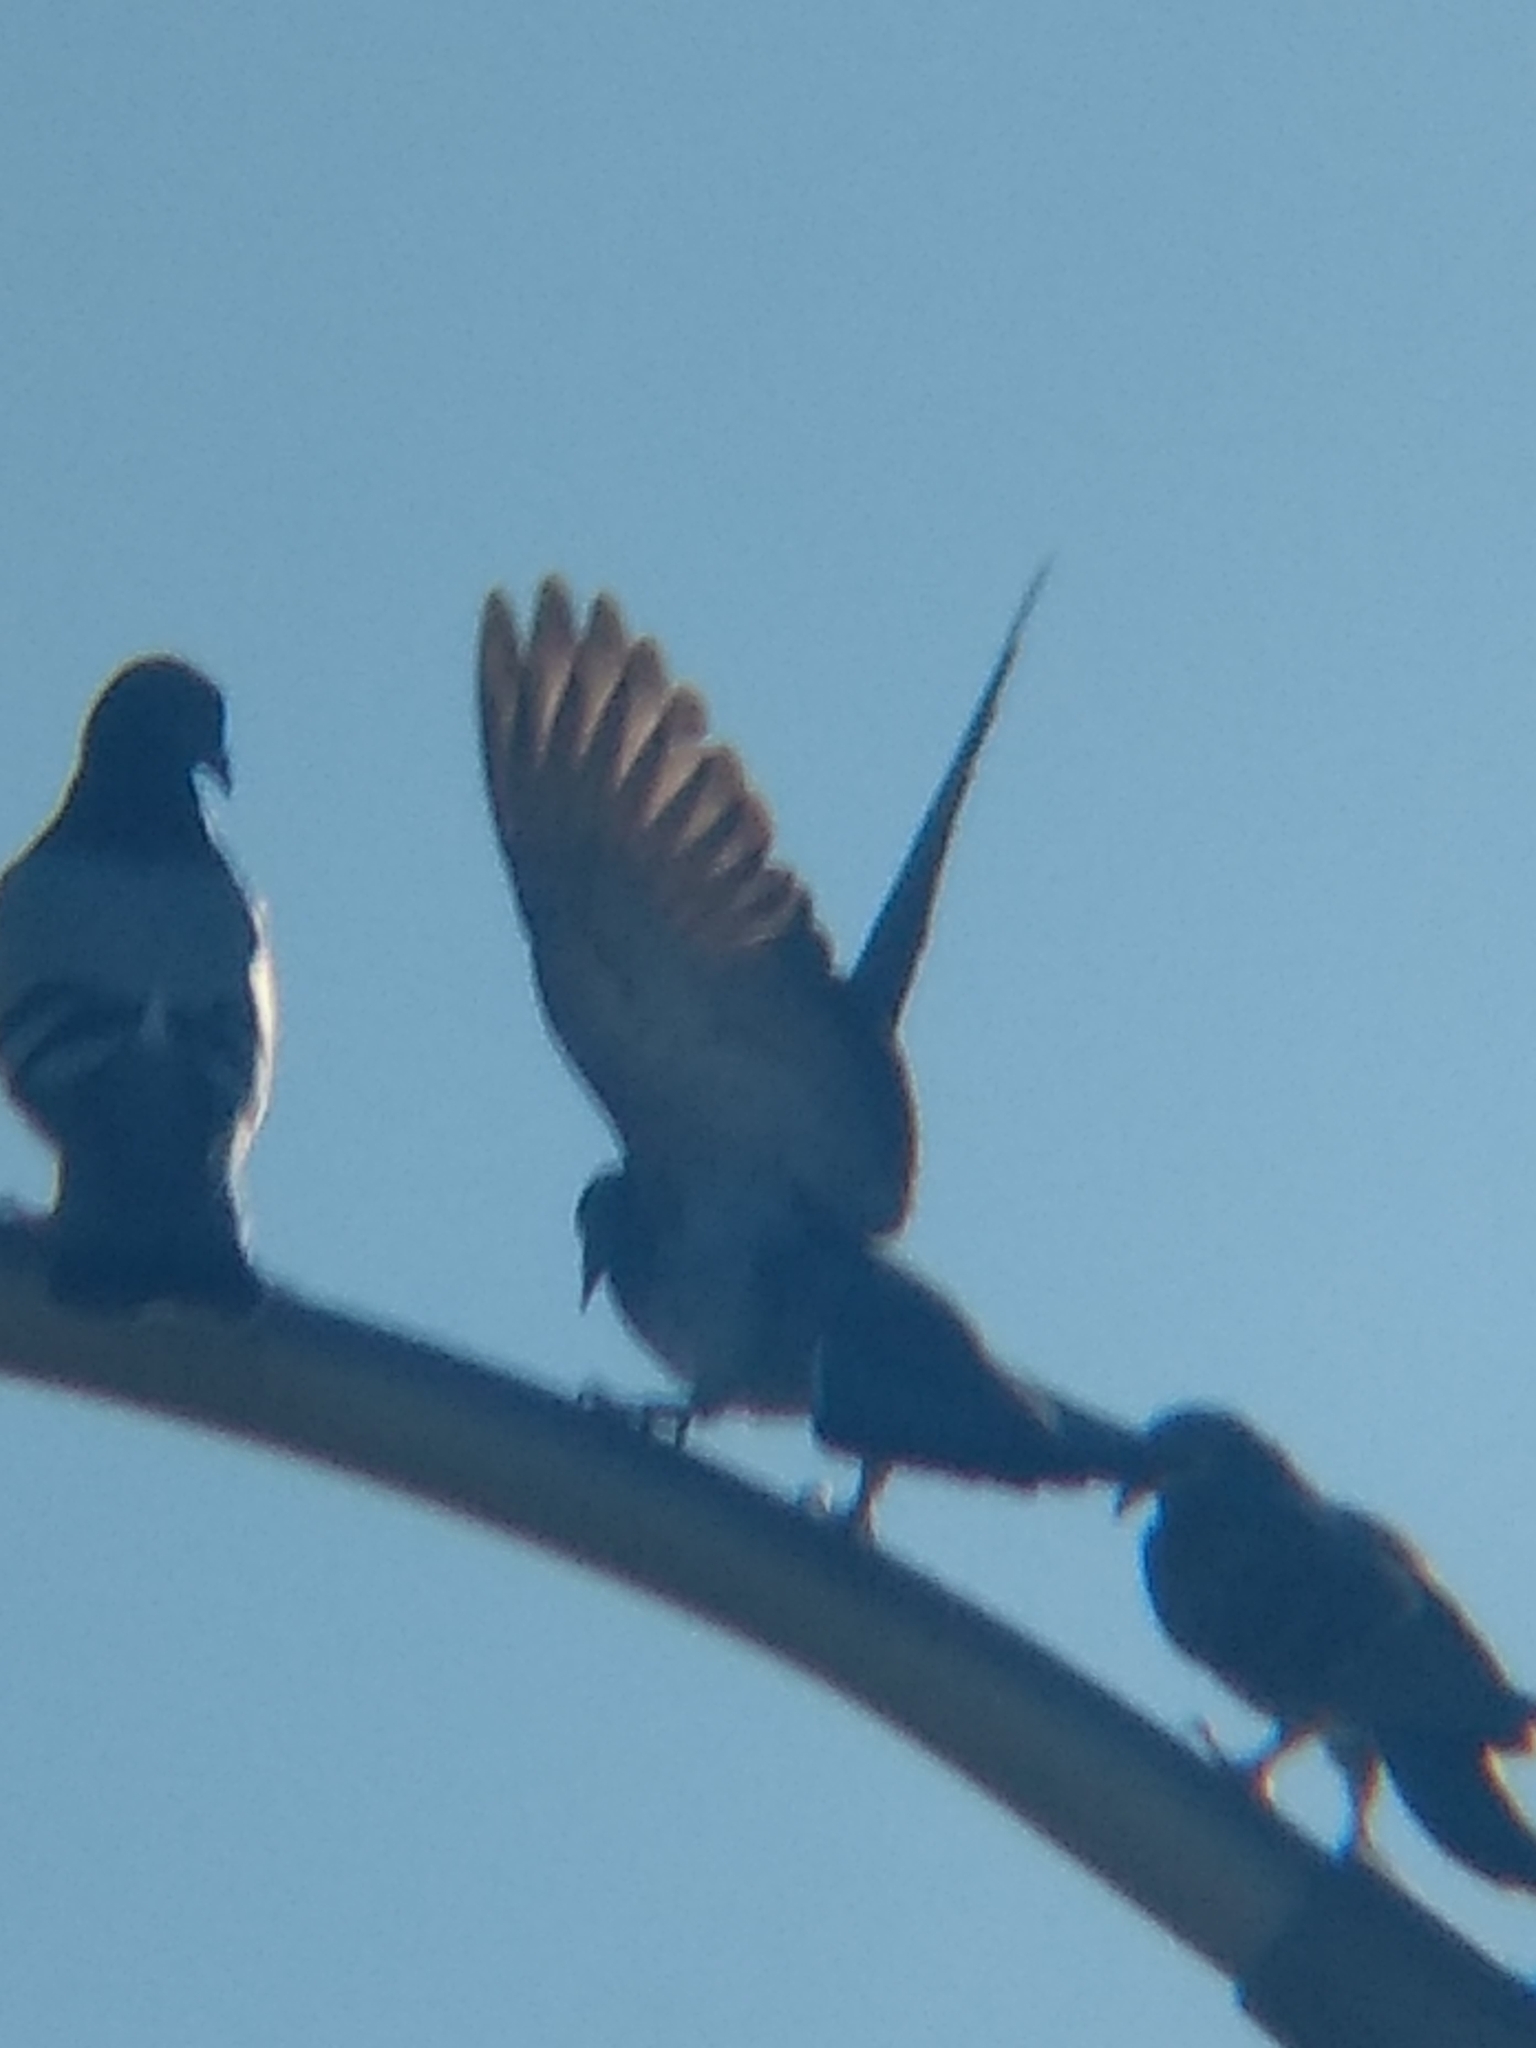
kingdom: Animalia
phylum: Chordata
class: Aves
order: Columbiformes
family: Columbidae
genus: Columba
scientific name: Columba livia
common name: Rock pigeon
